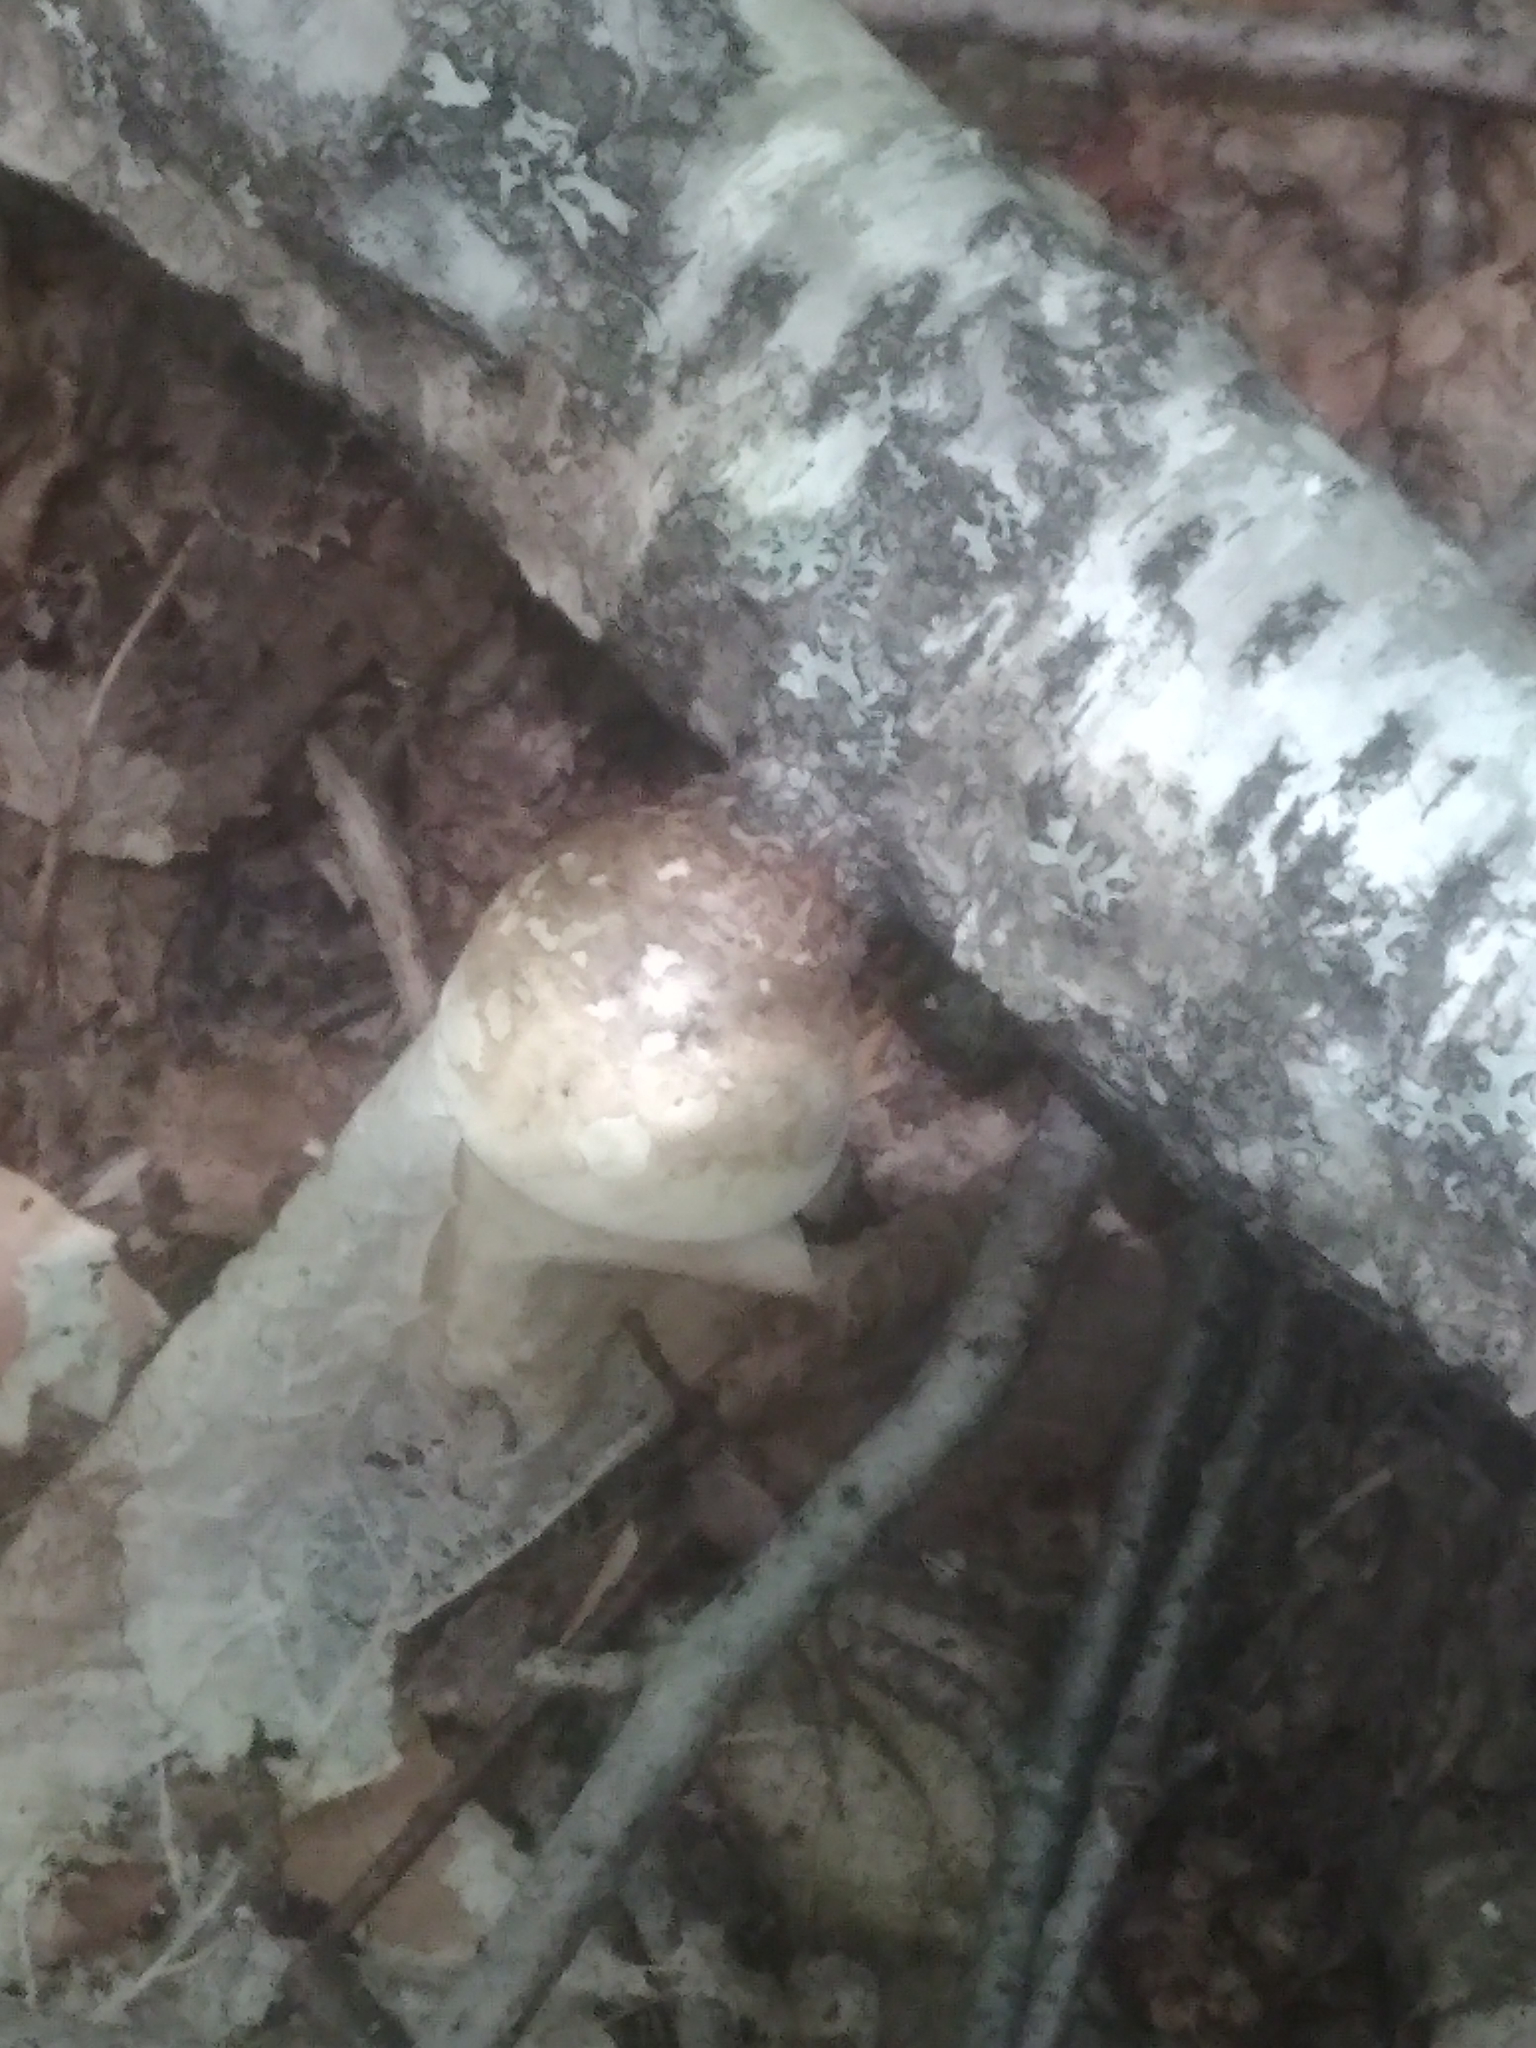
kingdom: Fungi
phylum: Basidiomycota
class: Agaricomycetes
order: Polyporales
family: Fomitopsidaceae
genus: Fomitopsis
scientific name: Fomitopsis betulina
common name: Birch polypore
